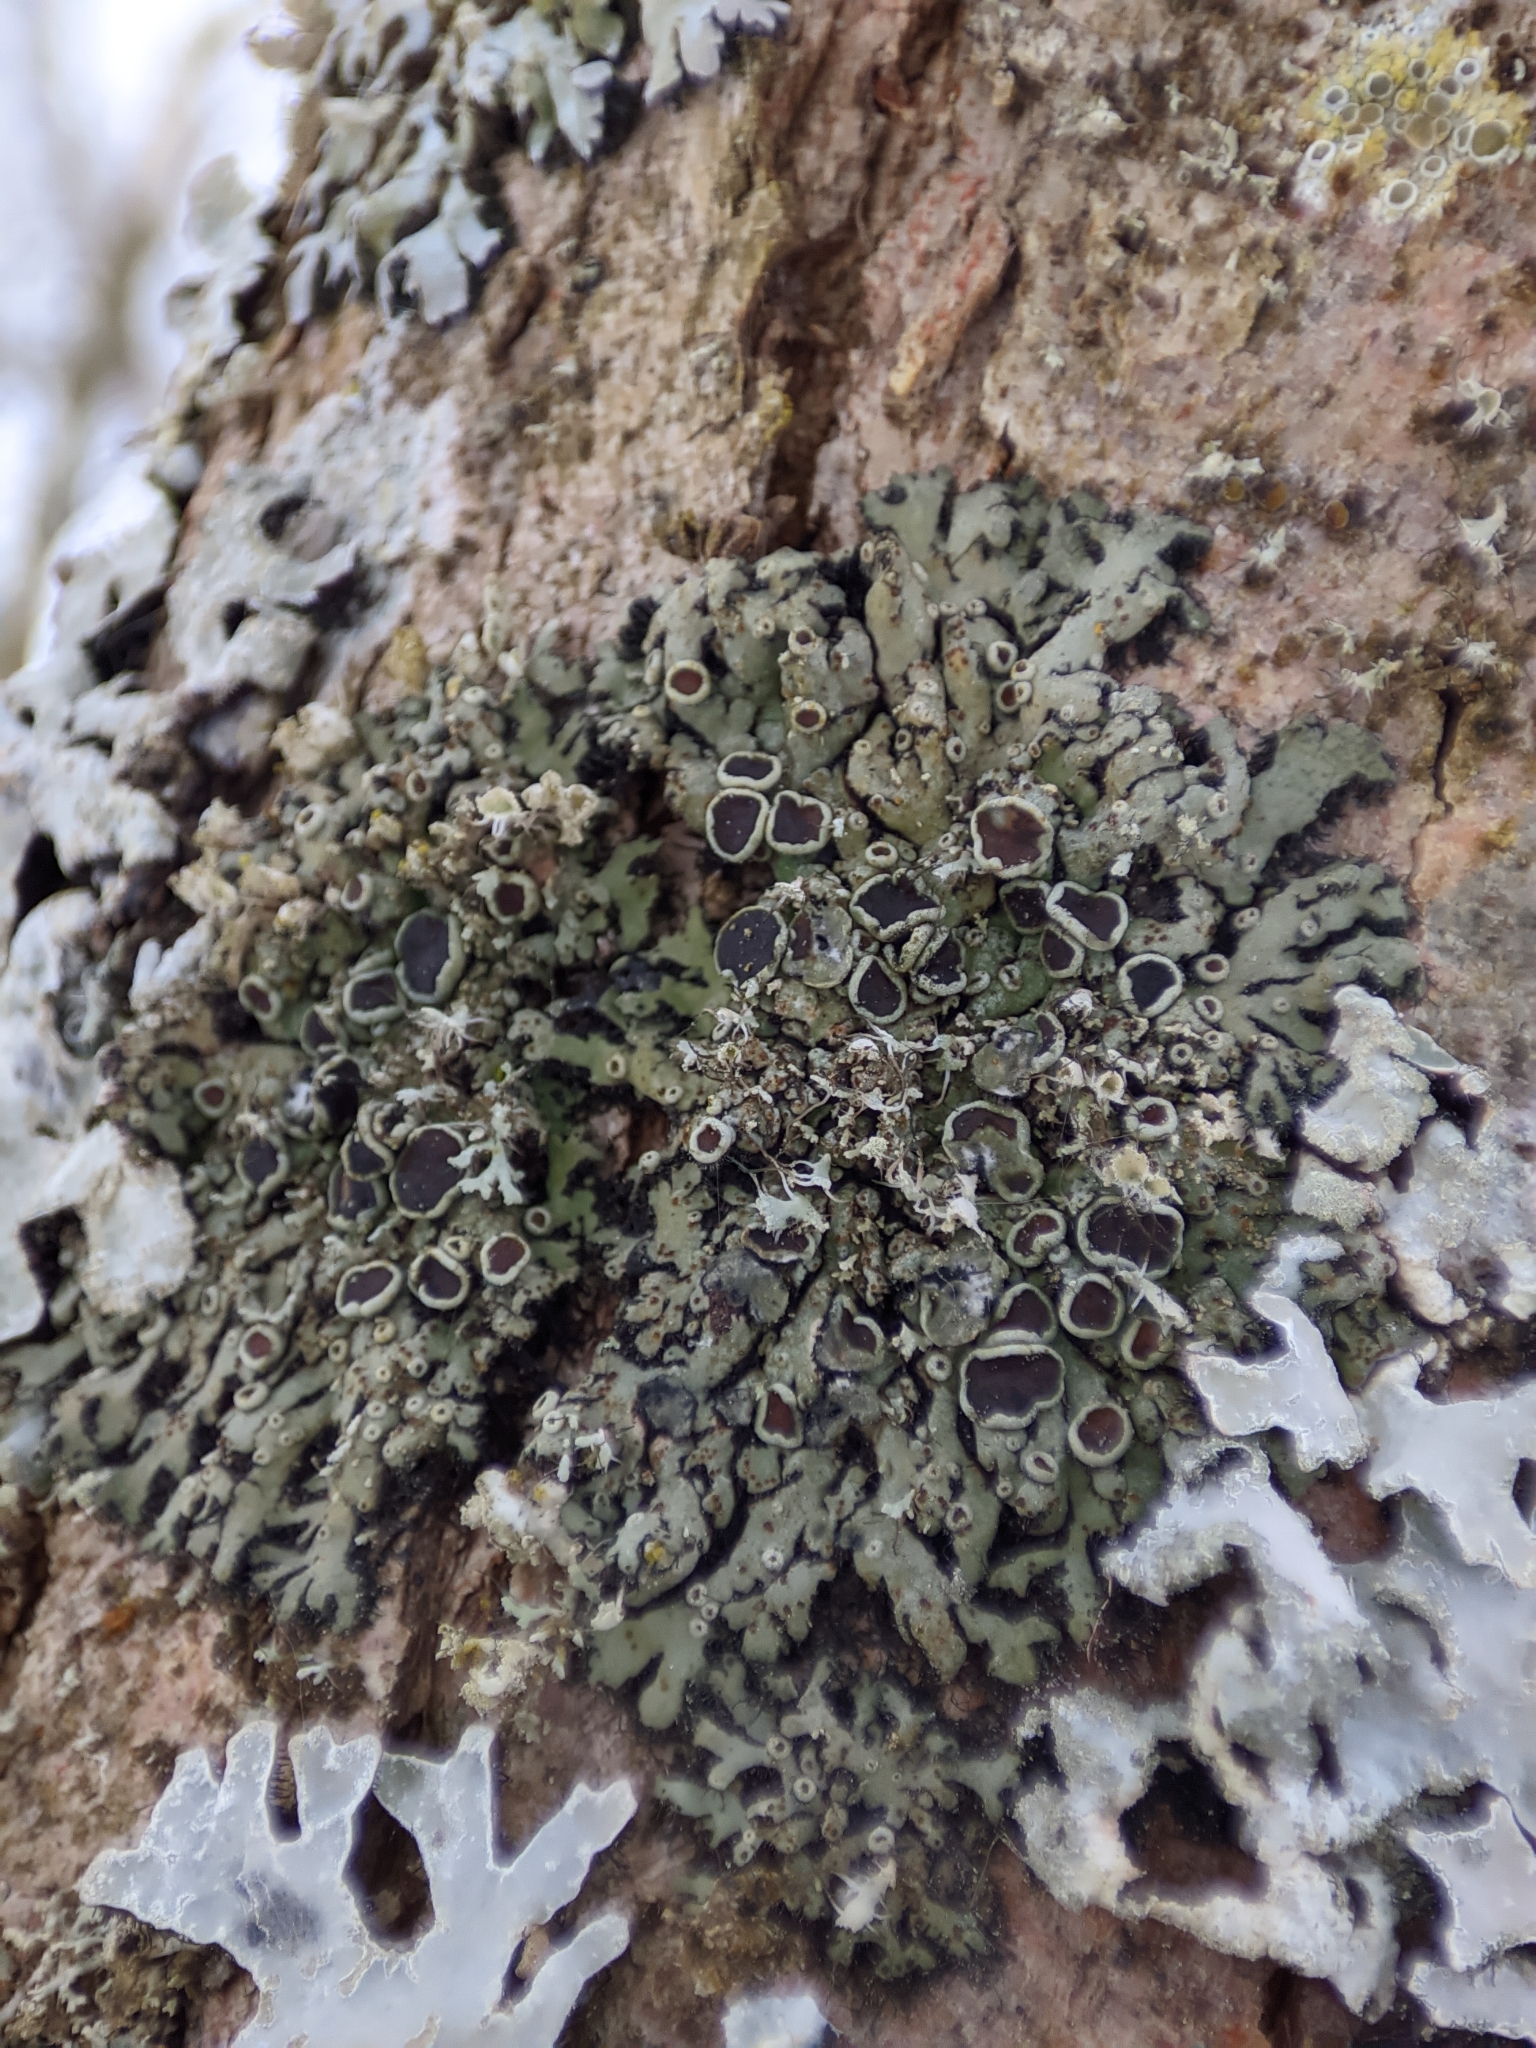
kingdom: Fungi
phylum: Ascomycota
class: Lecanoromycetes
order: Caliciales
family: Physciaceae
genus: Physcia
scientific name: Physcia stellaris
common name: Star rosette lichen
